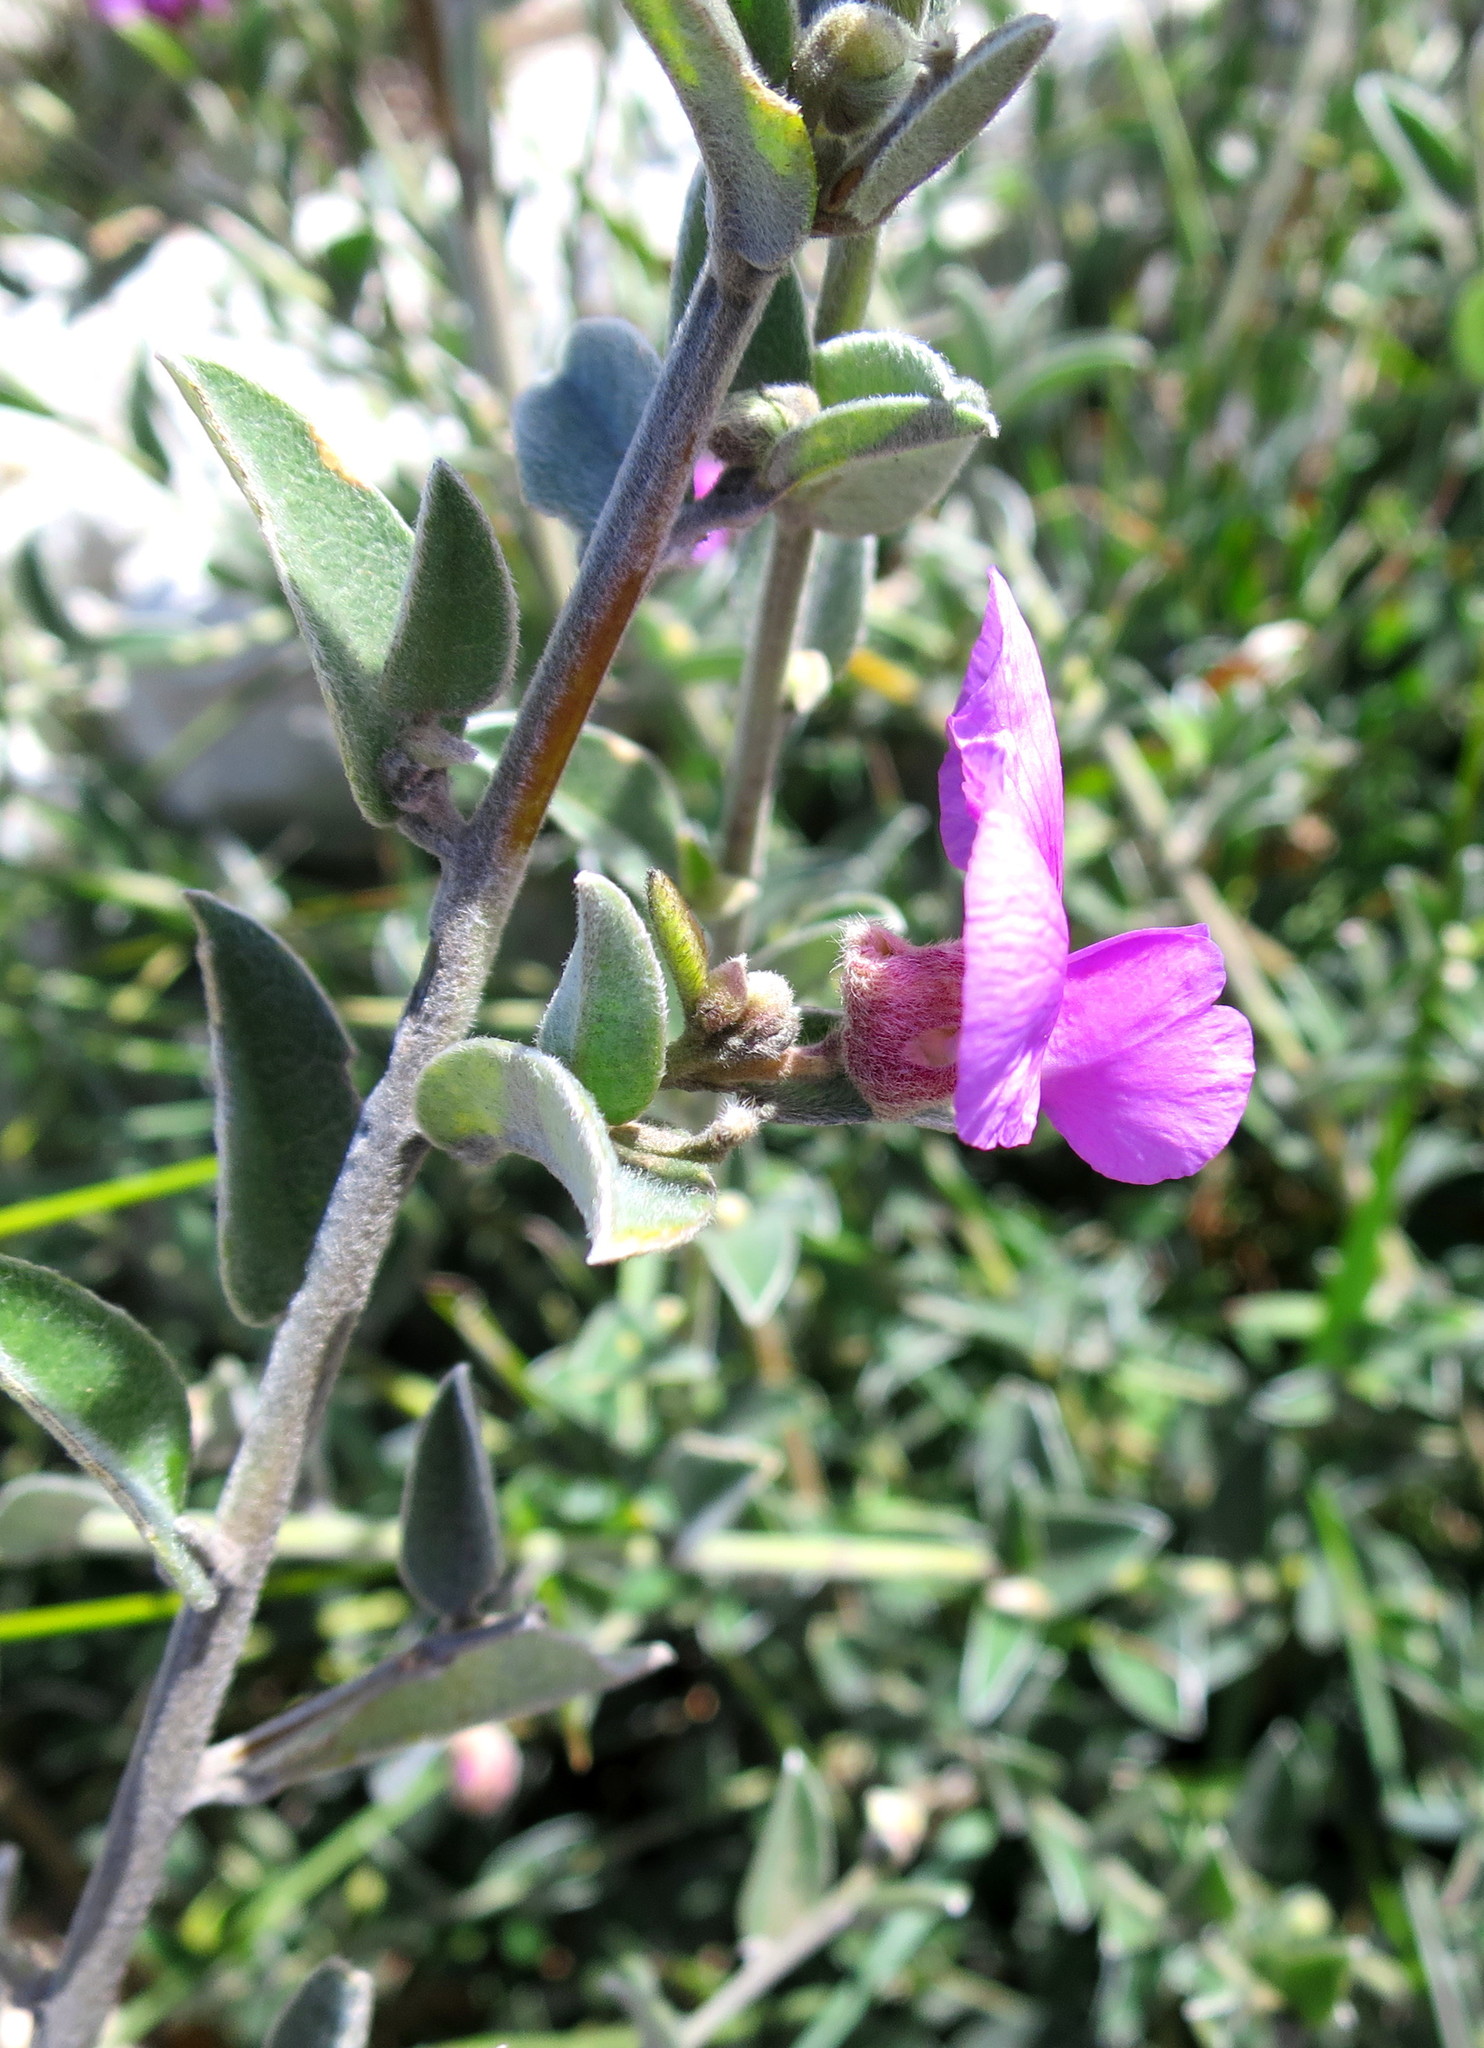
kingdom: Plantae
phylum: Tracheophyta
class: Magnoliopsida
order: Fabales
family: Fabaceae
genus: Podalyria
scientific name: Podalyria burchellii
